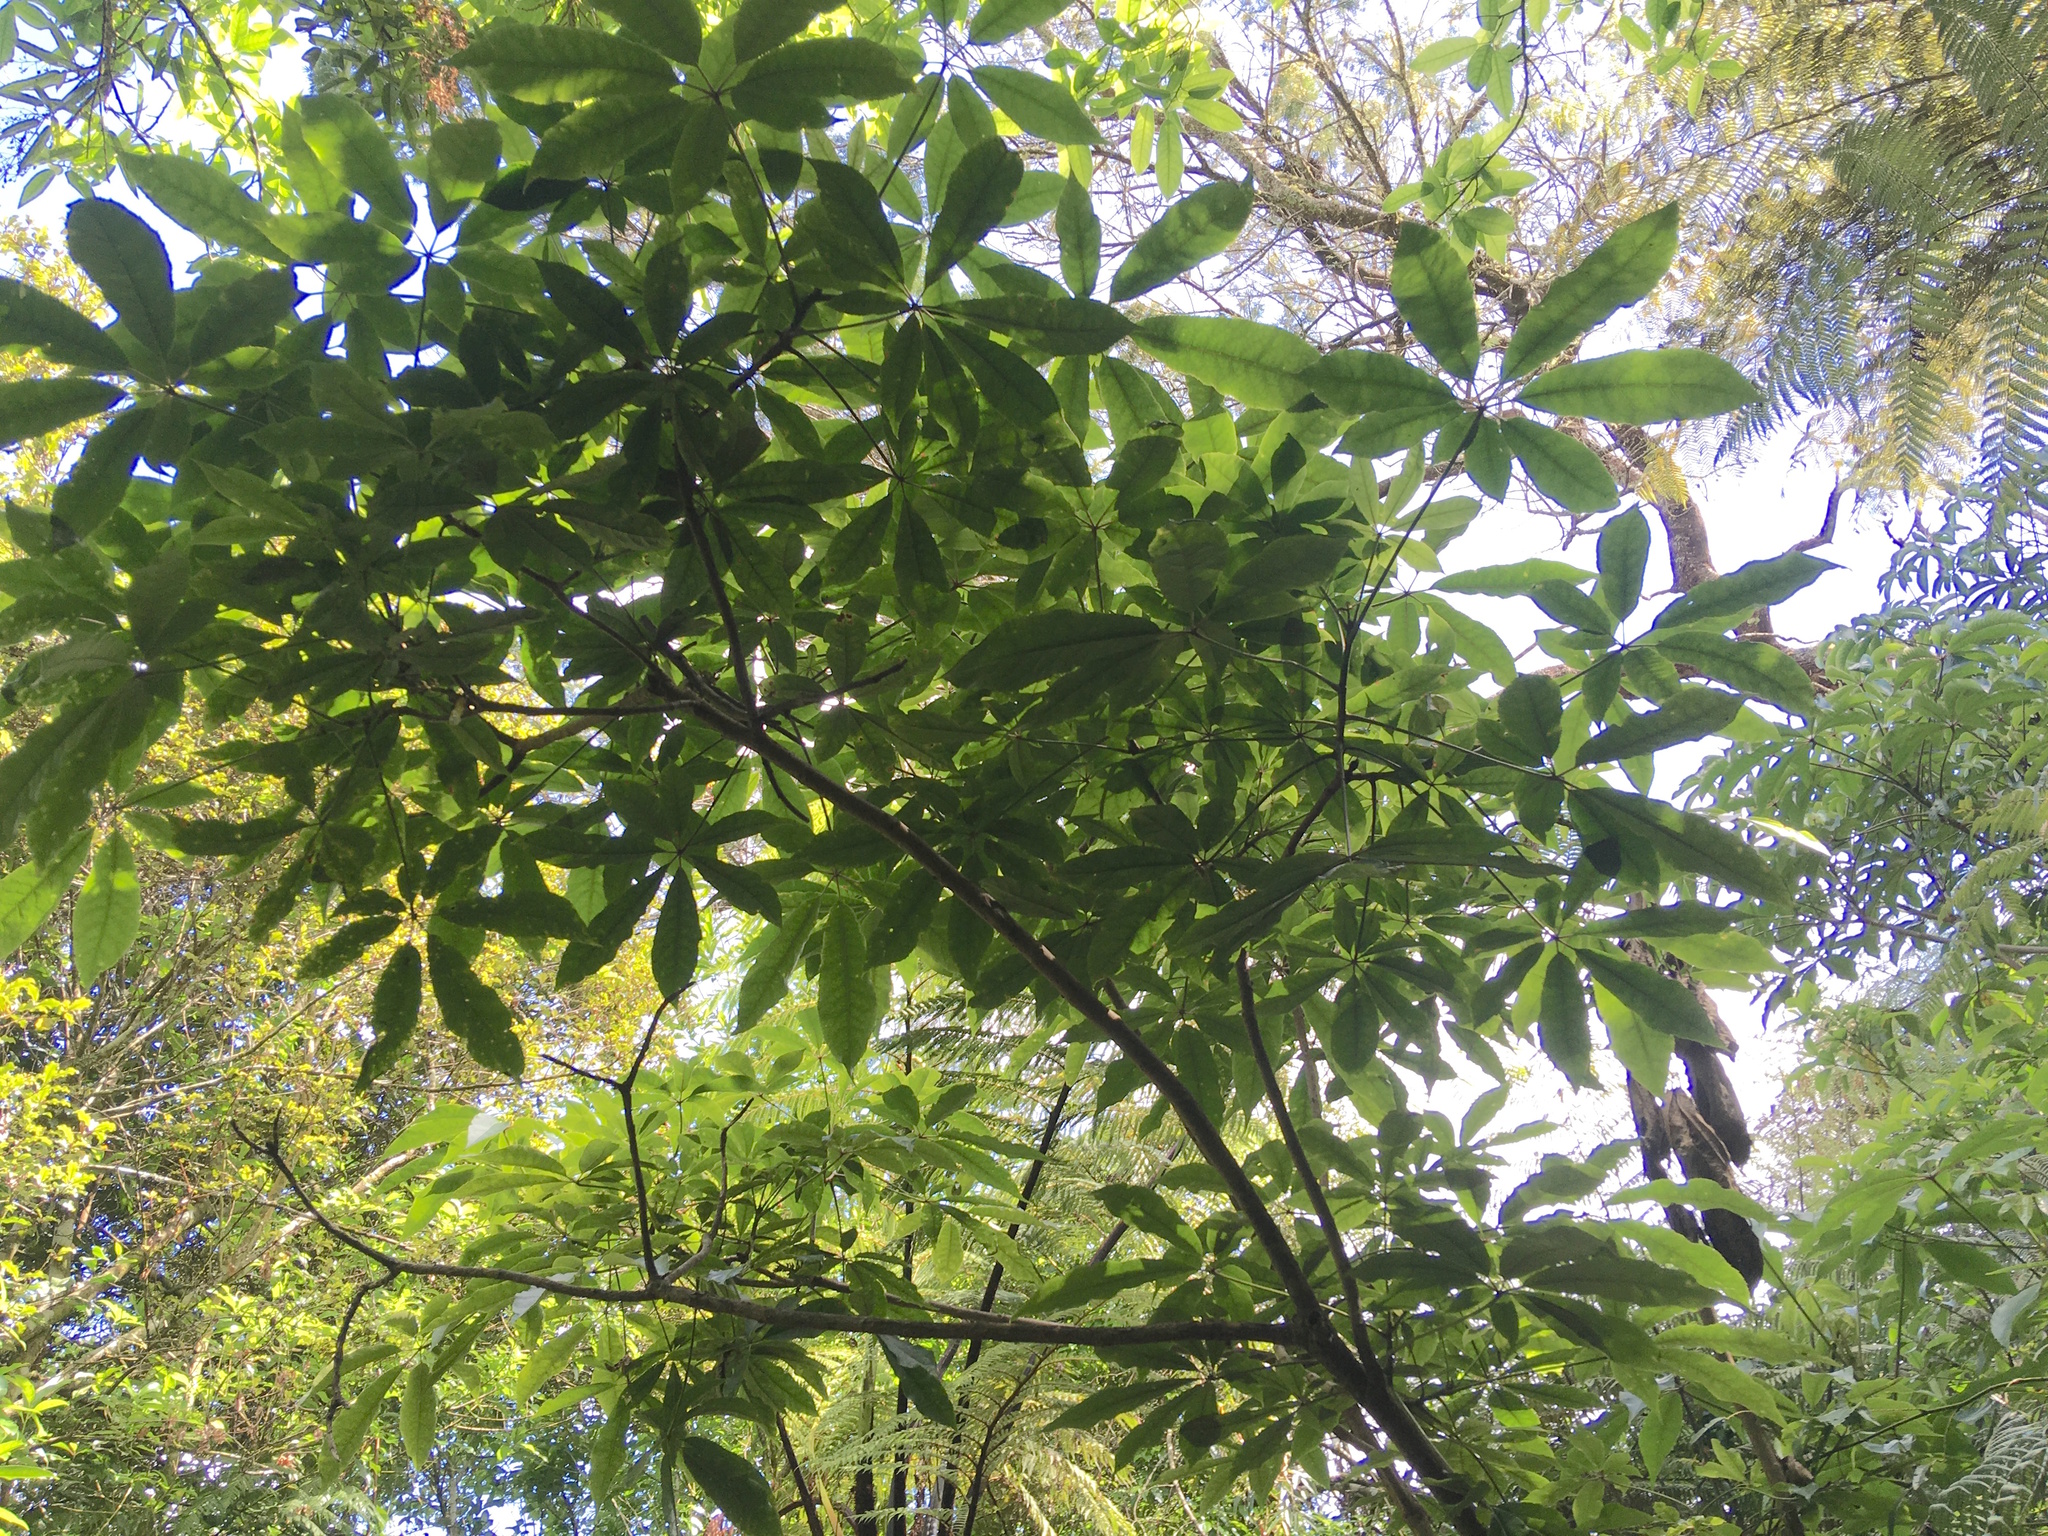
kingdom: Plantae
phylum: Tracheophyta
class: Magnoliopsida
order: Apiales
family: Araliaceae
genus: Schefflera
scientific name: Schefflera digitata
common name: Pate
